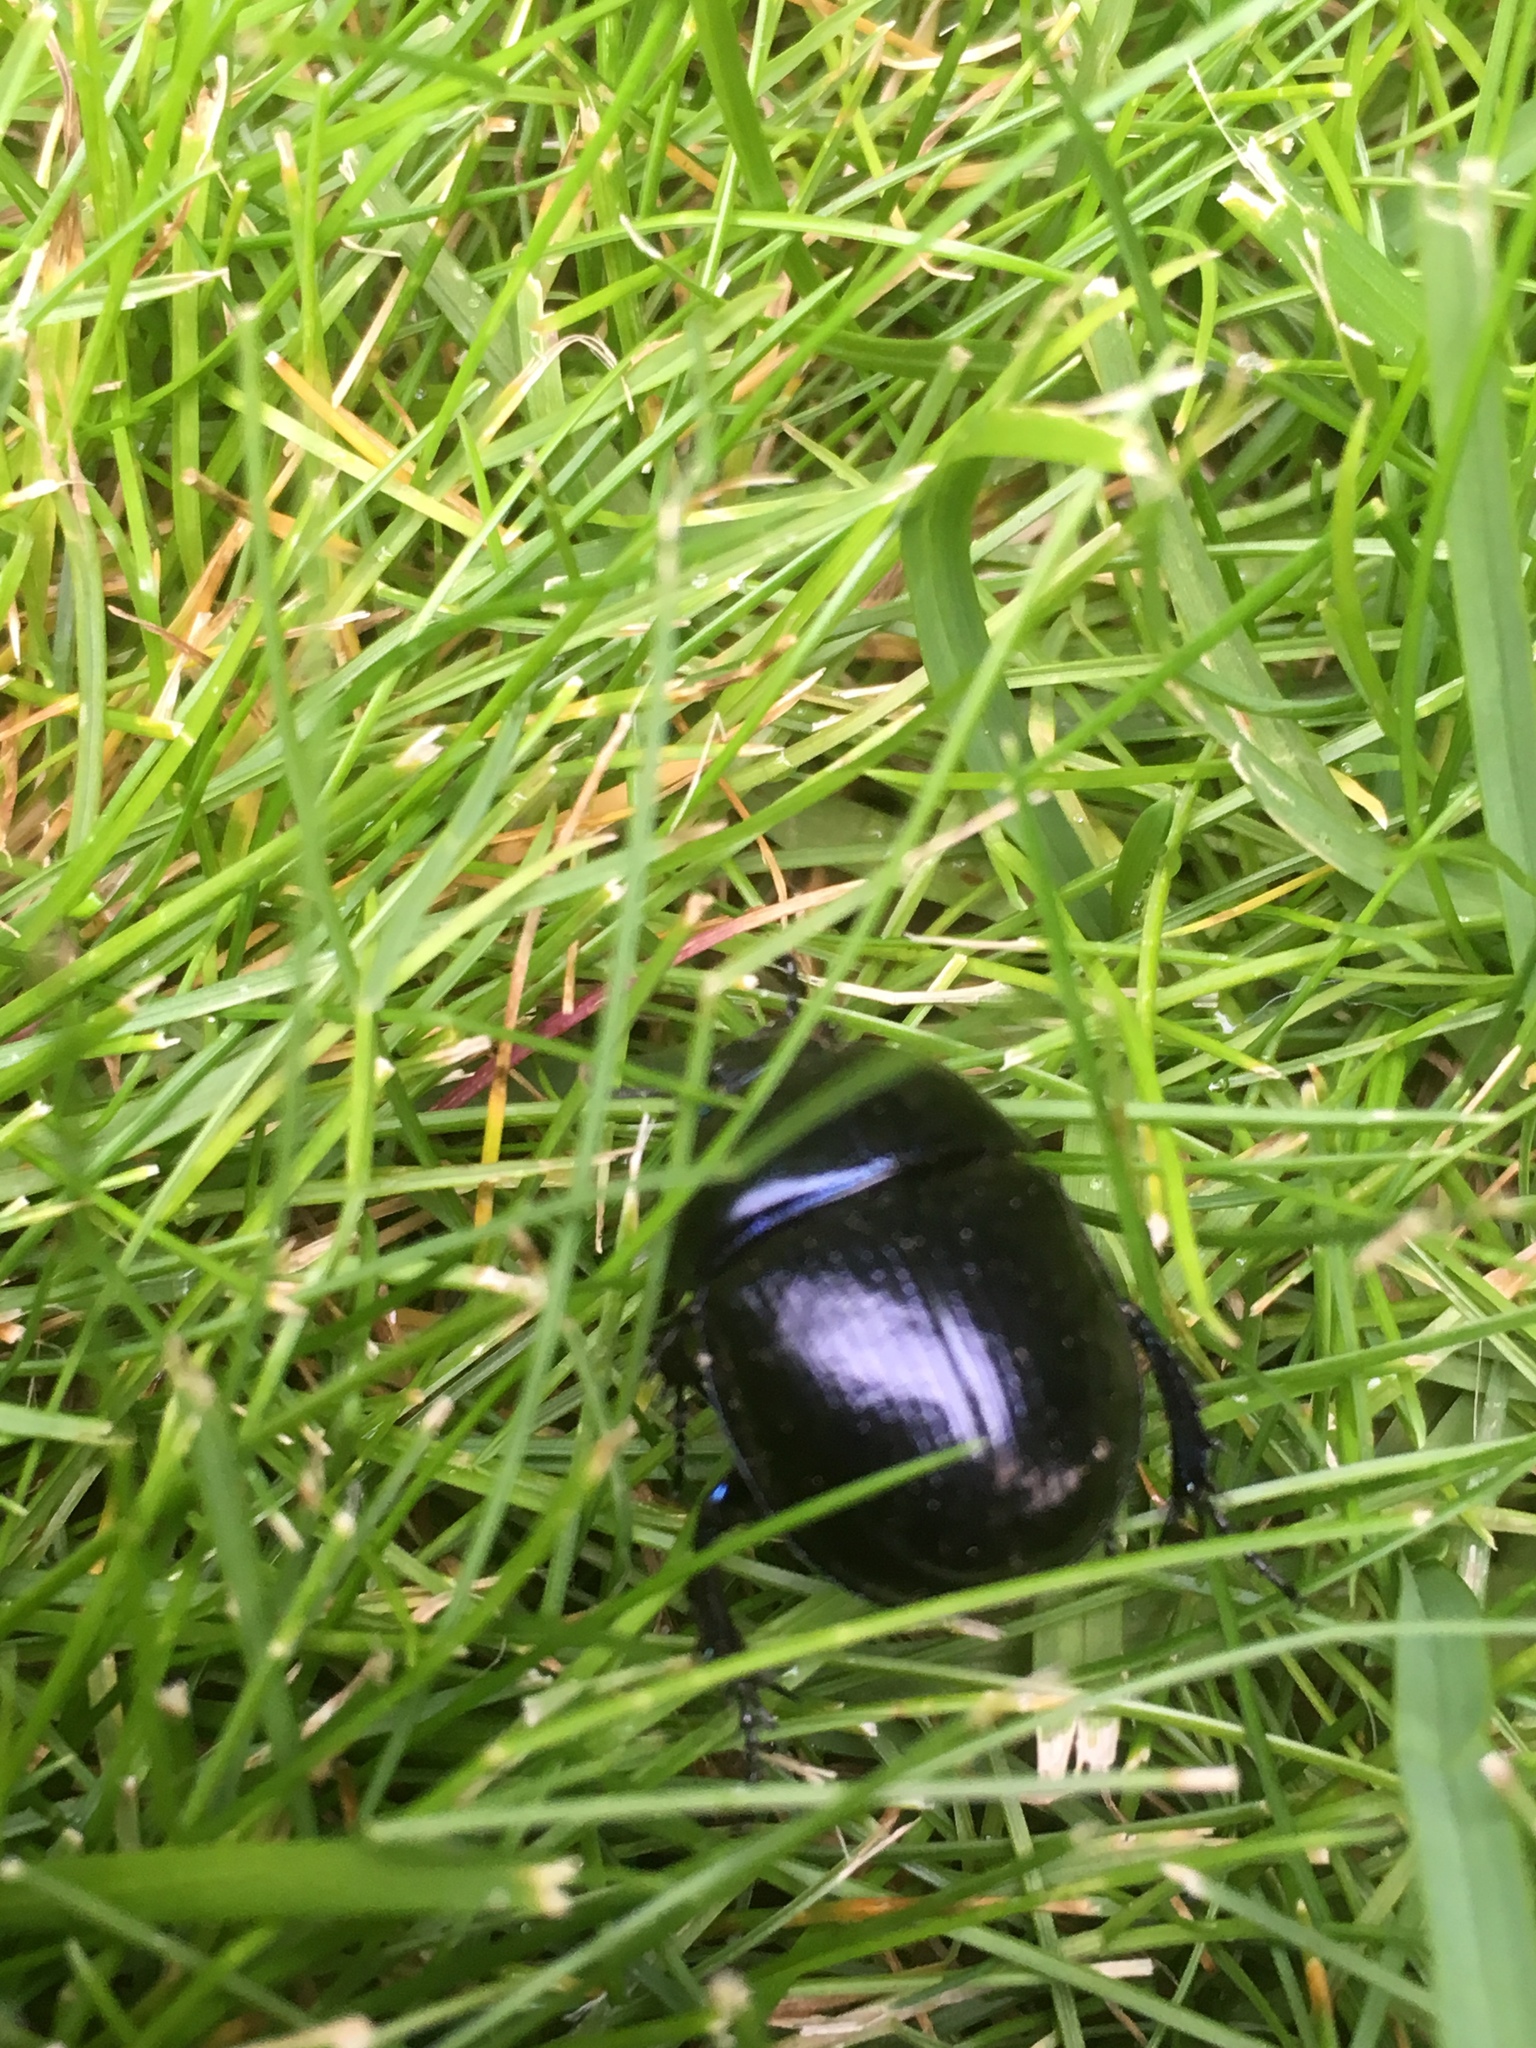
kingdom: Animalia
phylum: Arthropoda
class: Insecta
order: Coleoptera
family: Geotrupidae
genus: Anoplotrupes
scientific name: Anoplotrupes stercorosus
